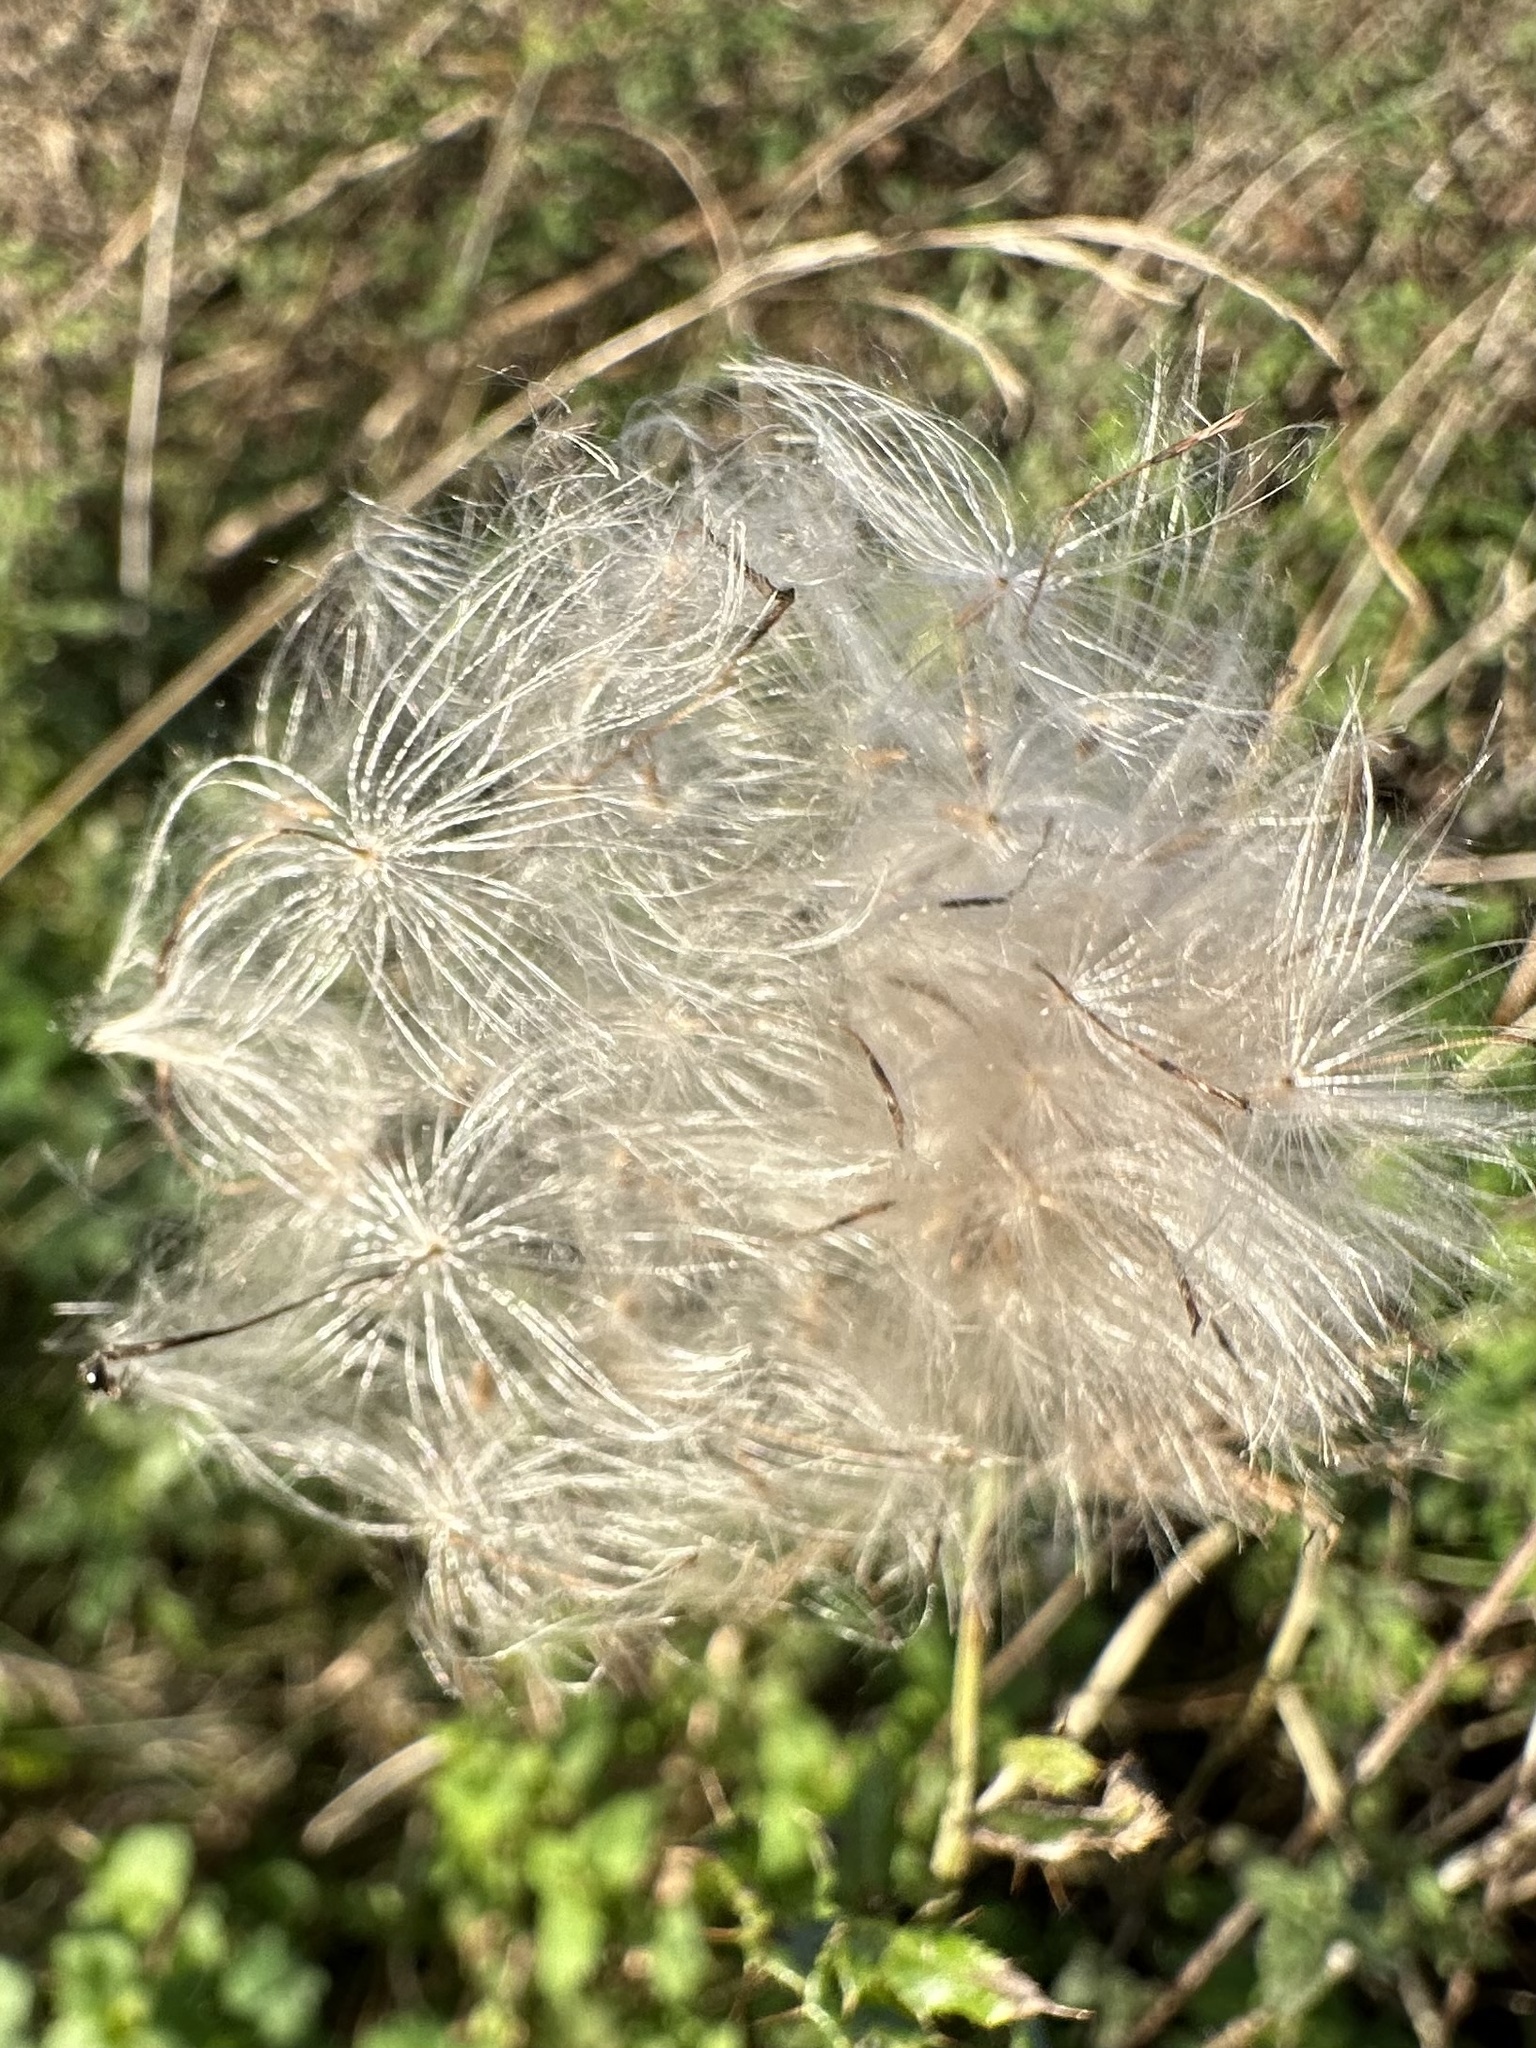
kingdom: Plantae
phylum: Tracheophyta
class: Magnoliopsida
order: Asterales
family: Asteraceae
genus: Cirsium
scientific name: Cirsium arvense
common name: Creeping thistle
